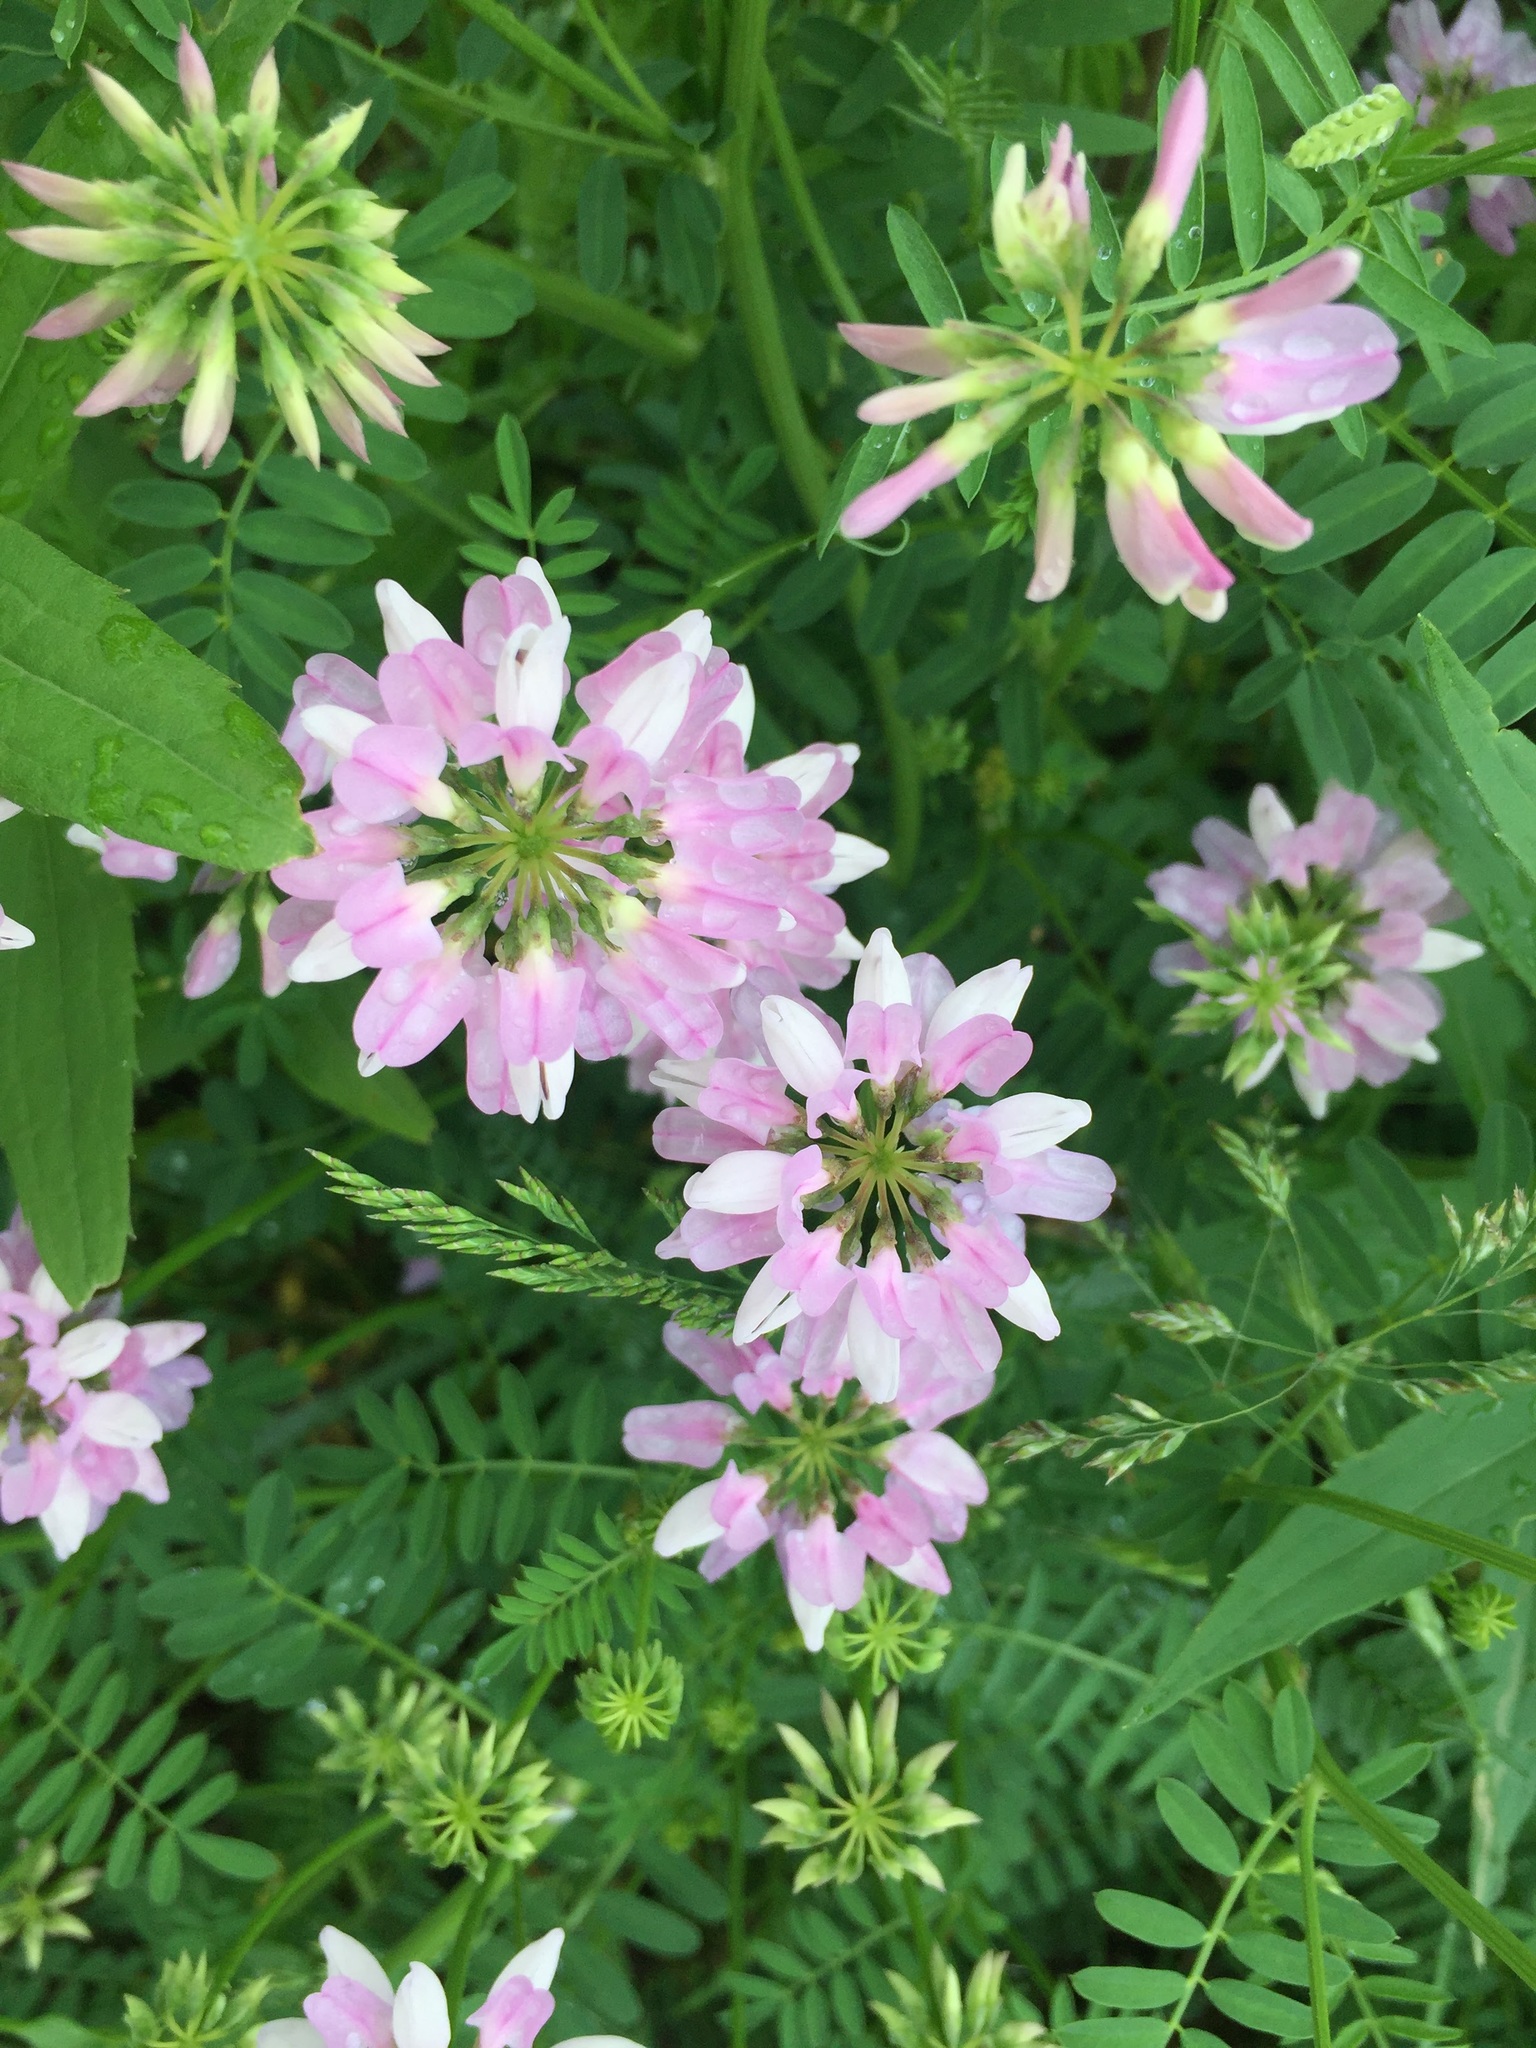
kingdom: Plantae
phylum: Tracheophyta
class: Magnoliopsida
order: Fabales
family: Fabaceae
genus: Coronilla
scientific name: Coronilla varia
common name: Crownvetch
